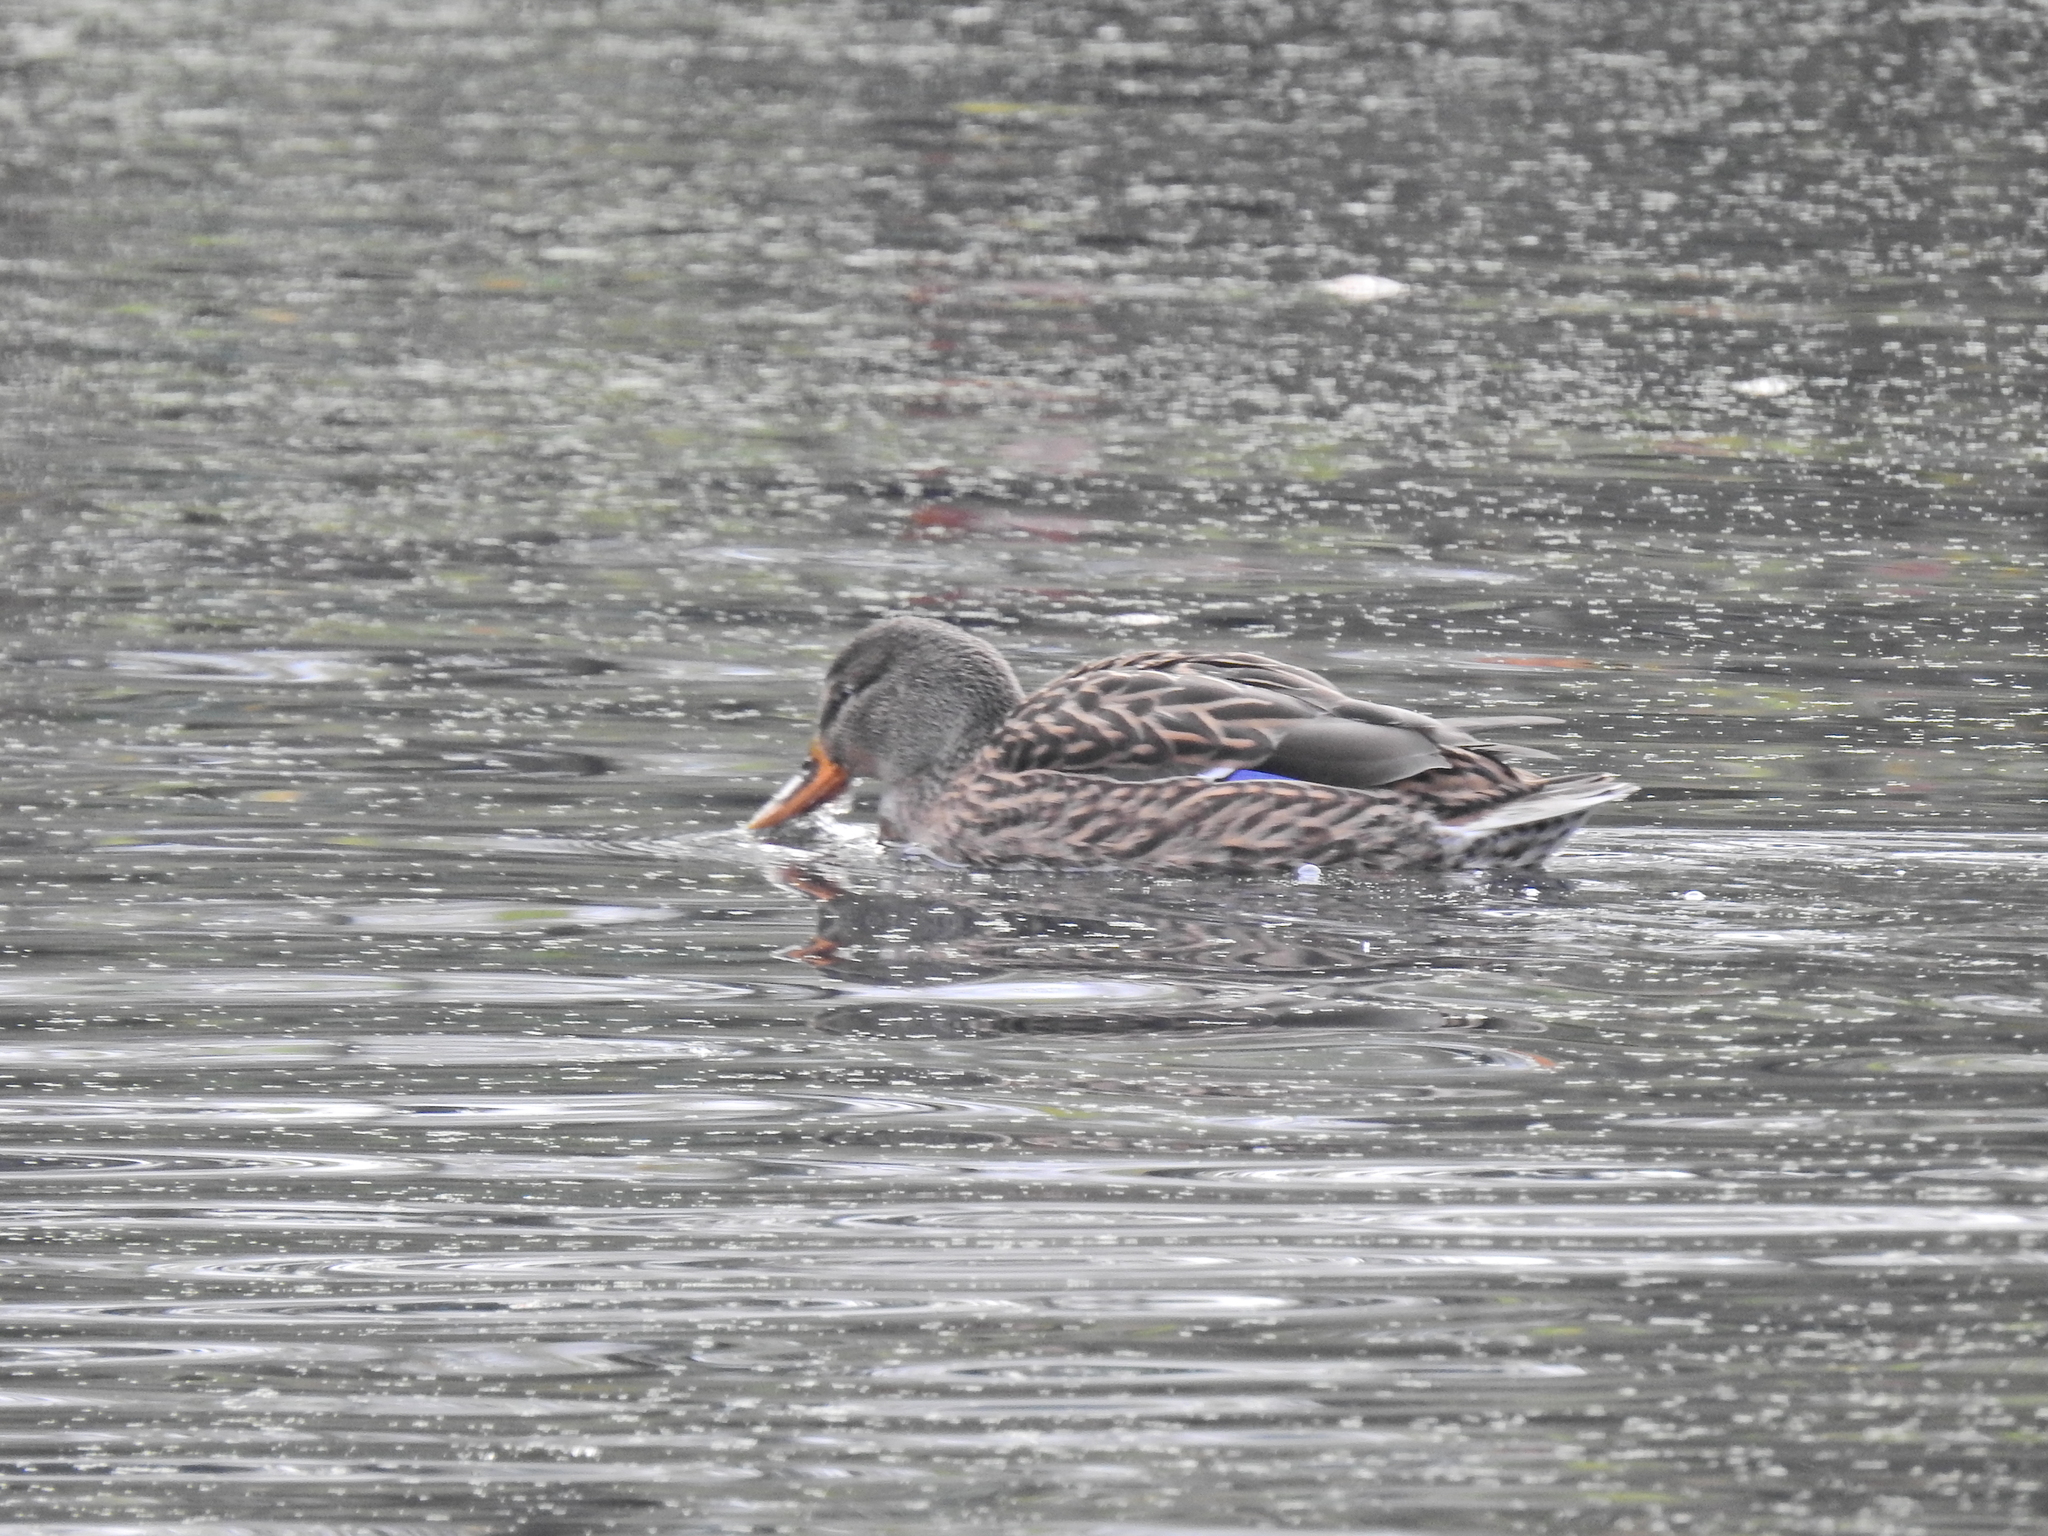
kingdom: Animalia
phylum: Chordata
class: Aves
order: Anseriformes
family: Anatidae
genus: Anas
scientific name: Anas platyrhynchos
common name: Mallard
